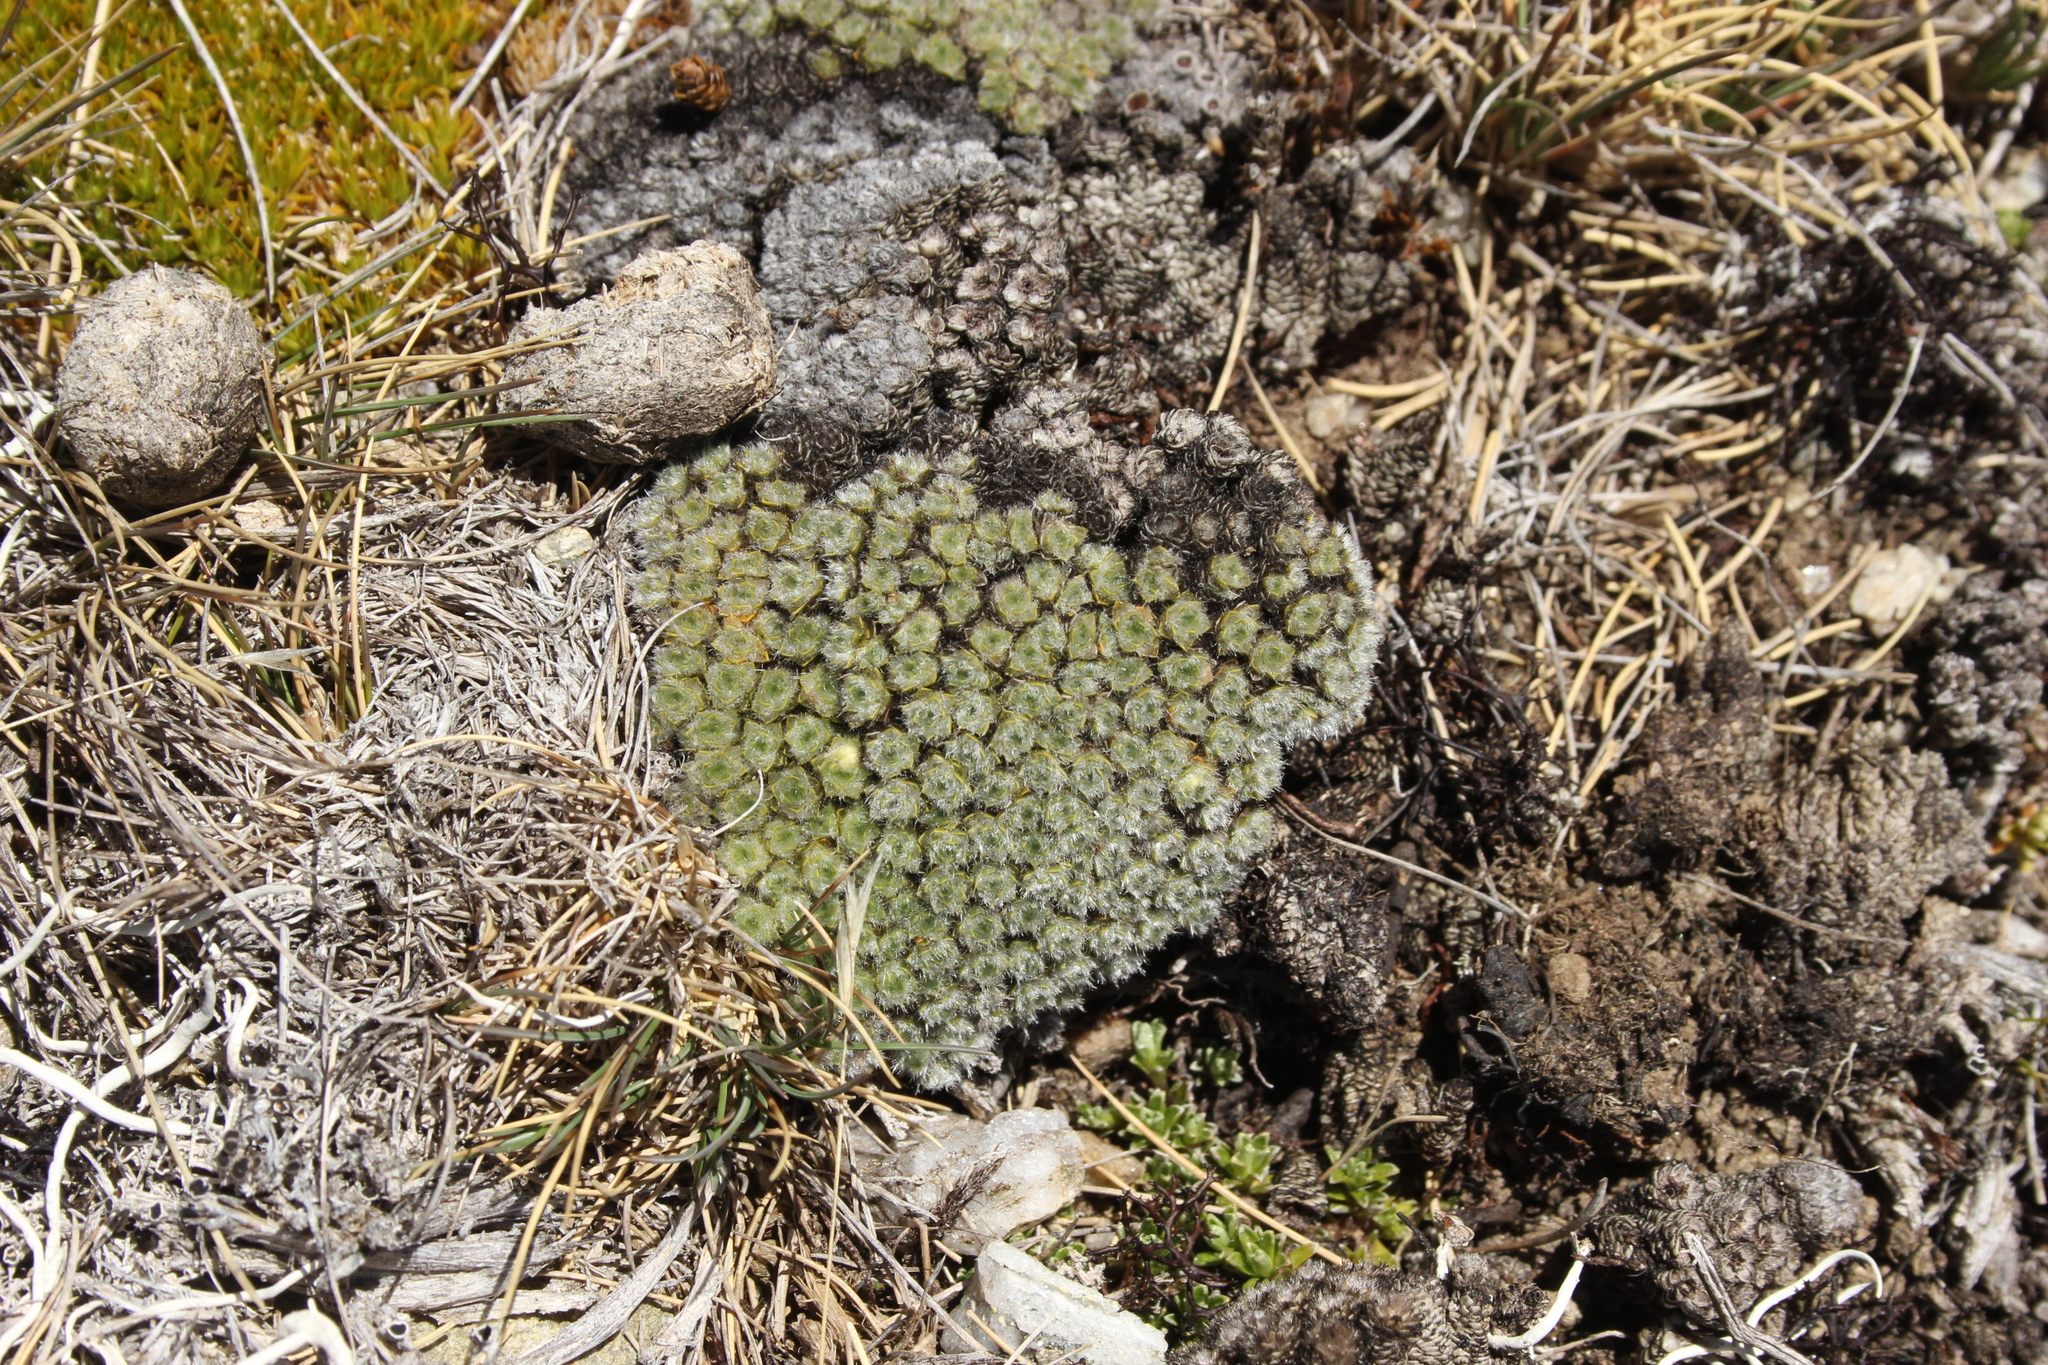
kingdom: Plantae
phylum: Tracheophyta
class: Magnoliopsida
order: Lamiales
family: Plantaginaceae
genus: Veronica
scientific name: Veronica thomsonii
